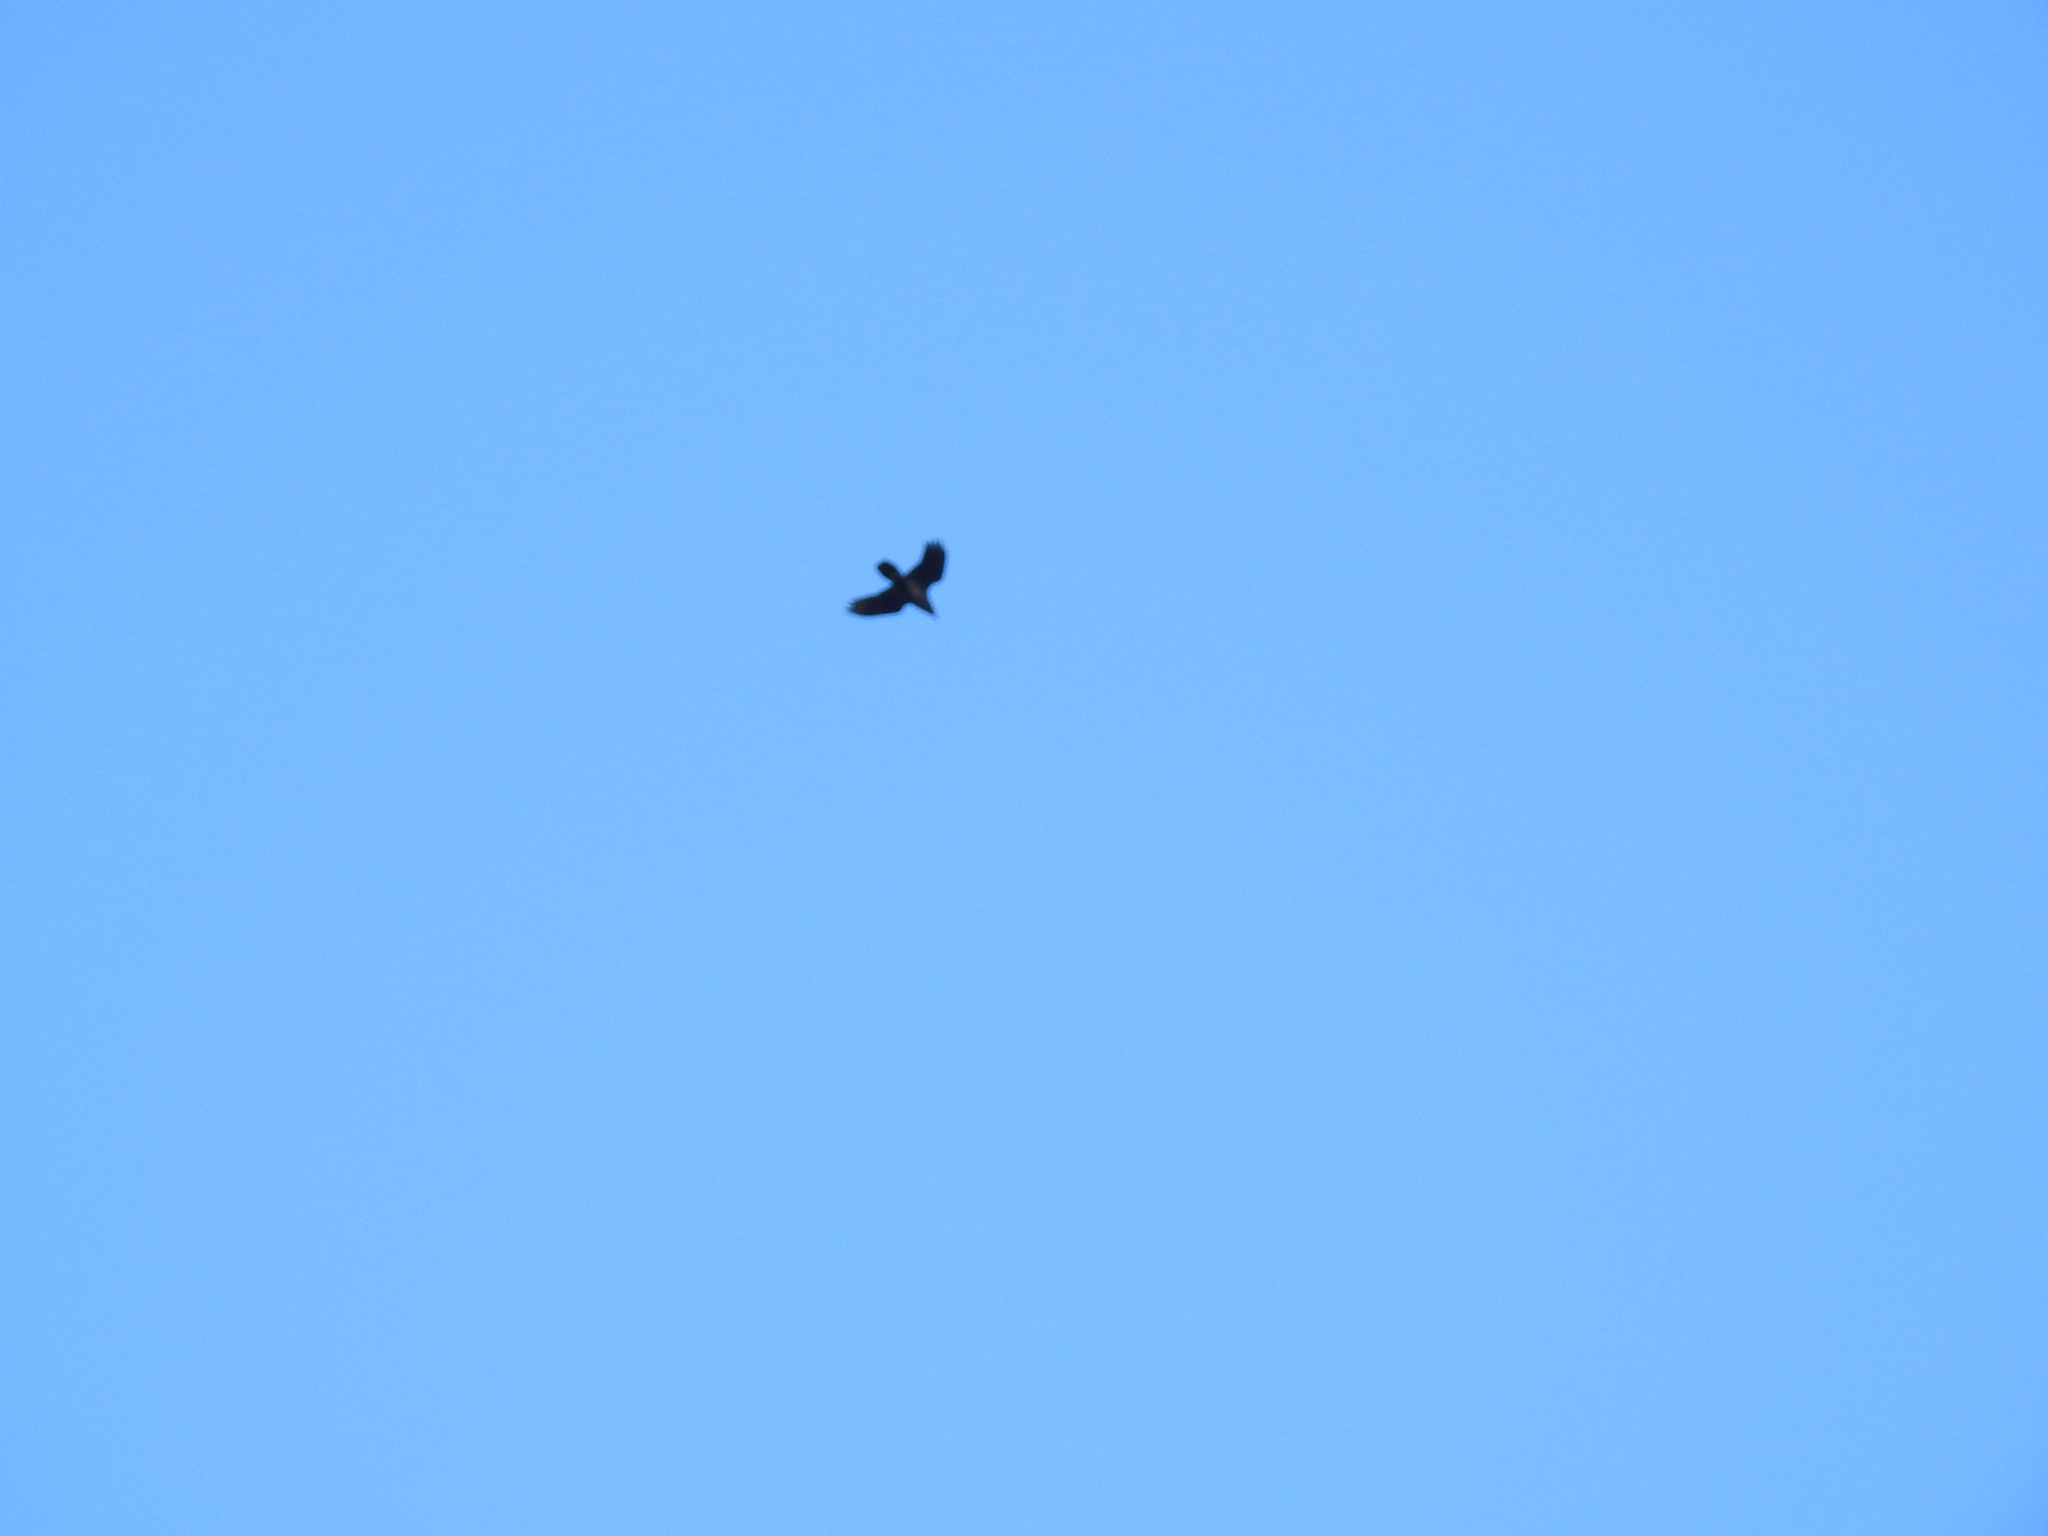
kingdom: Animalia
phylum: Chordata
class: Aves
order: Passeriformes
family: Corvidae
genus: Corvus
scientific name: Corvus corax
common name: Common raven
